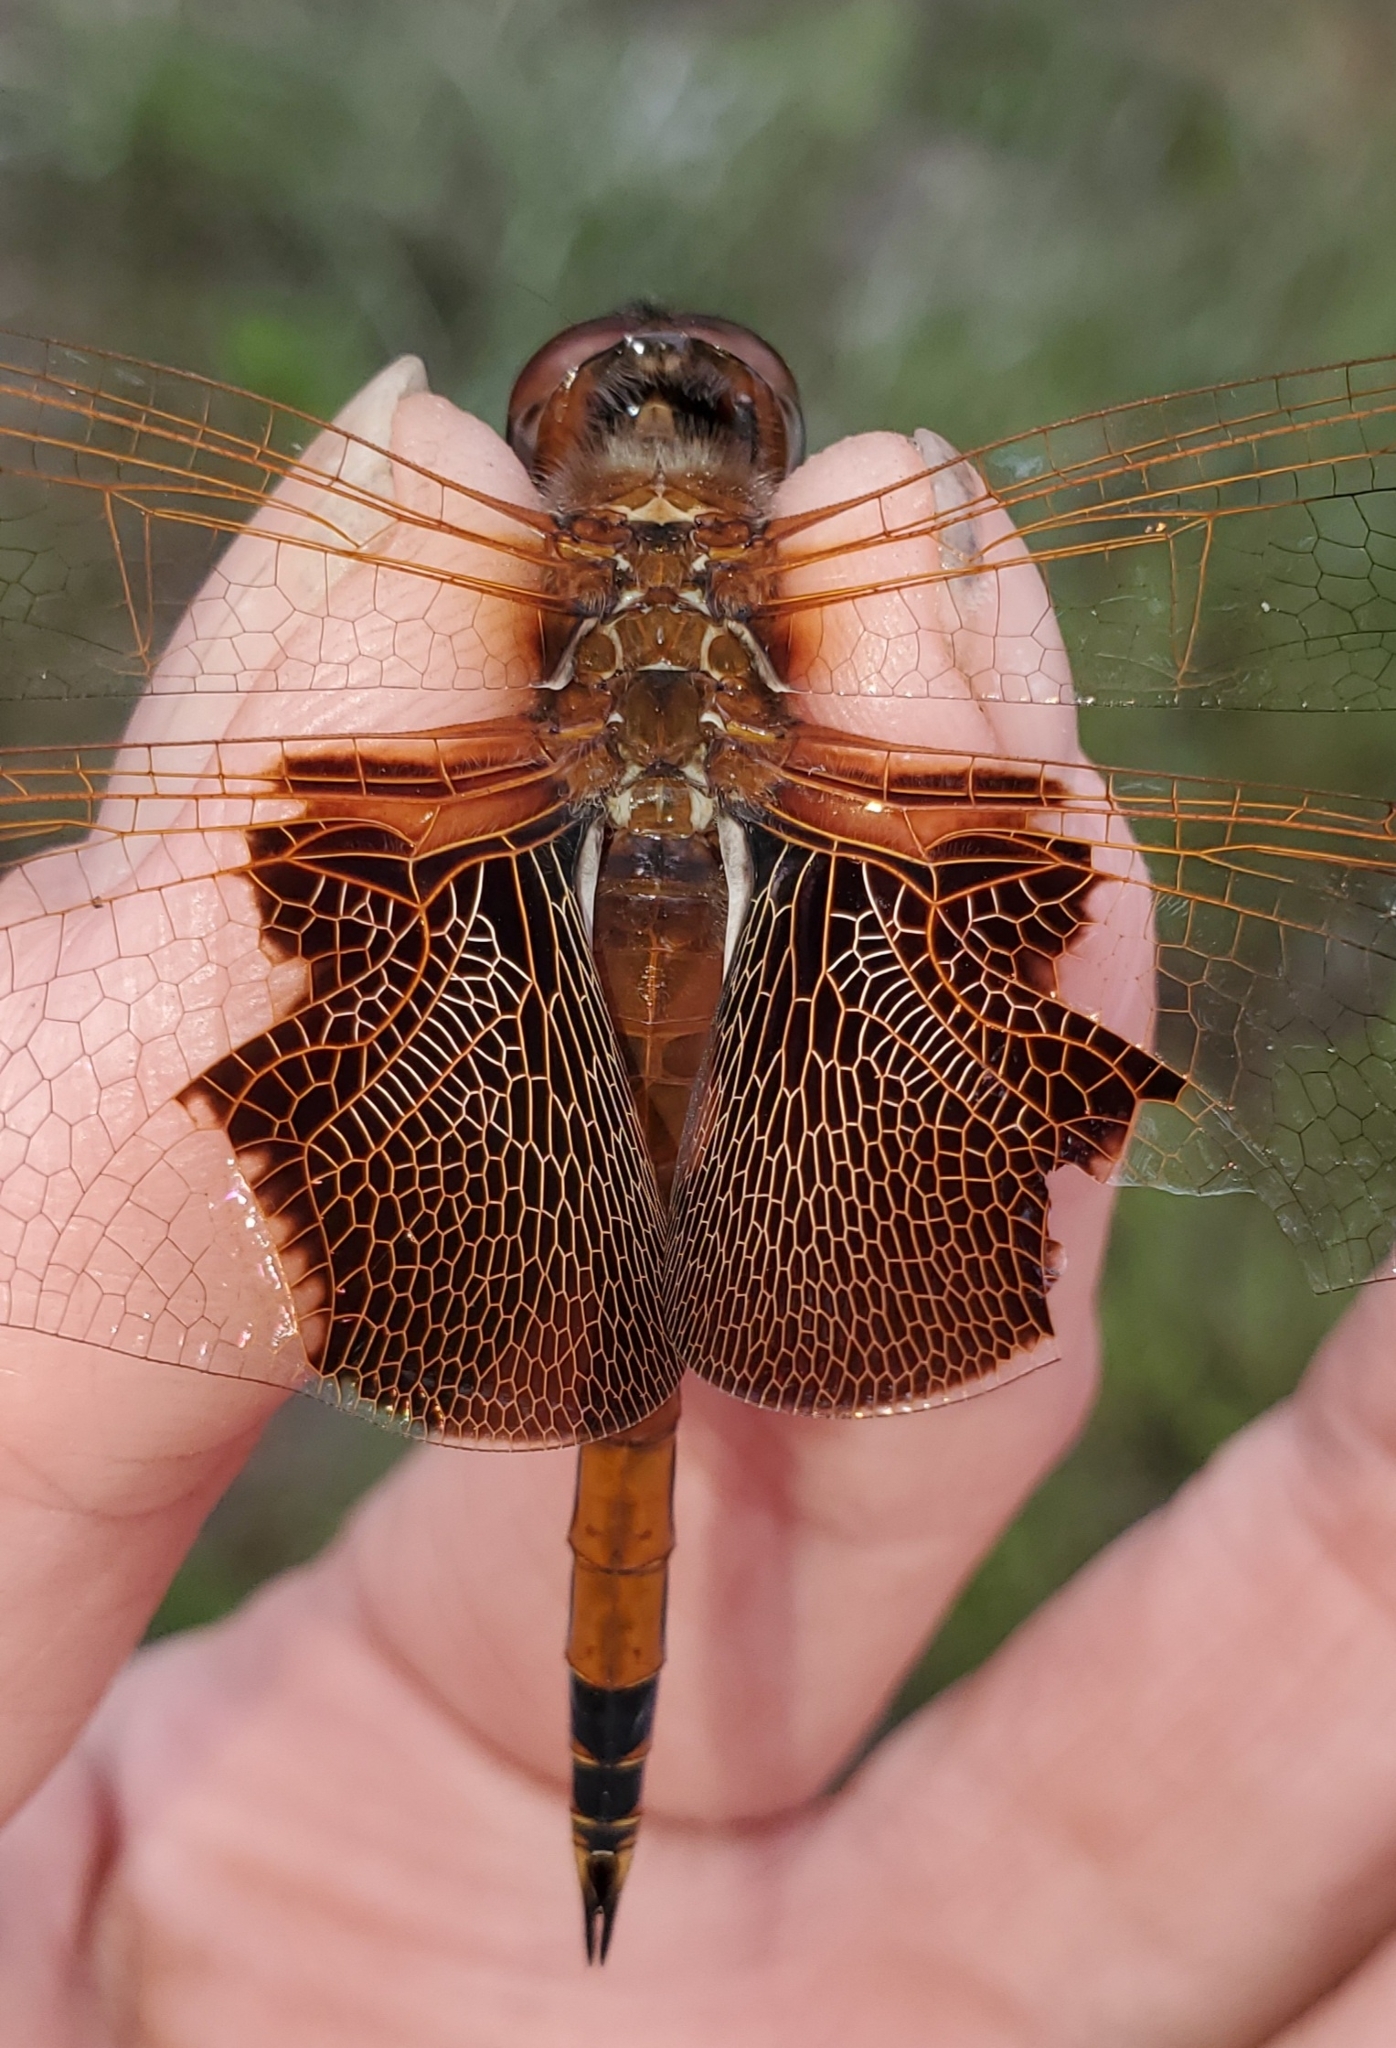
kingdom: Animalia
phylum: Arthropoda
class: Insecta
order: Odonata
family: Libellulidae
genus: Tramea
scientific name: Tramea carolina
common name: Carolina saddlebags
